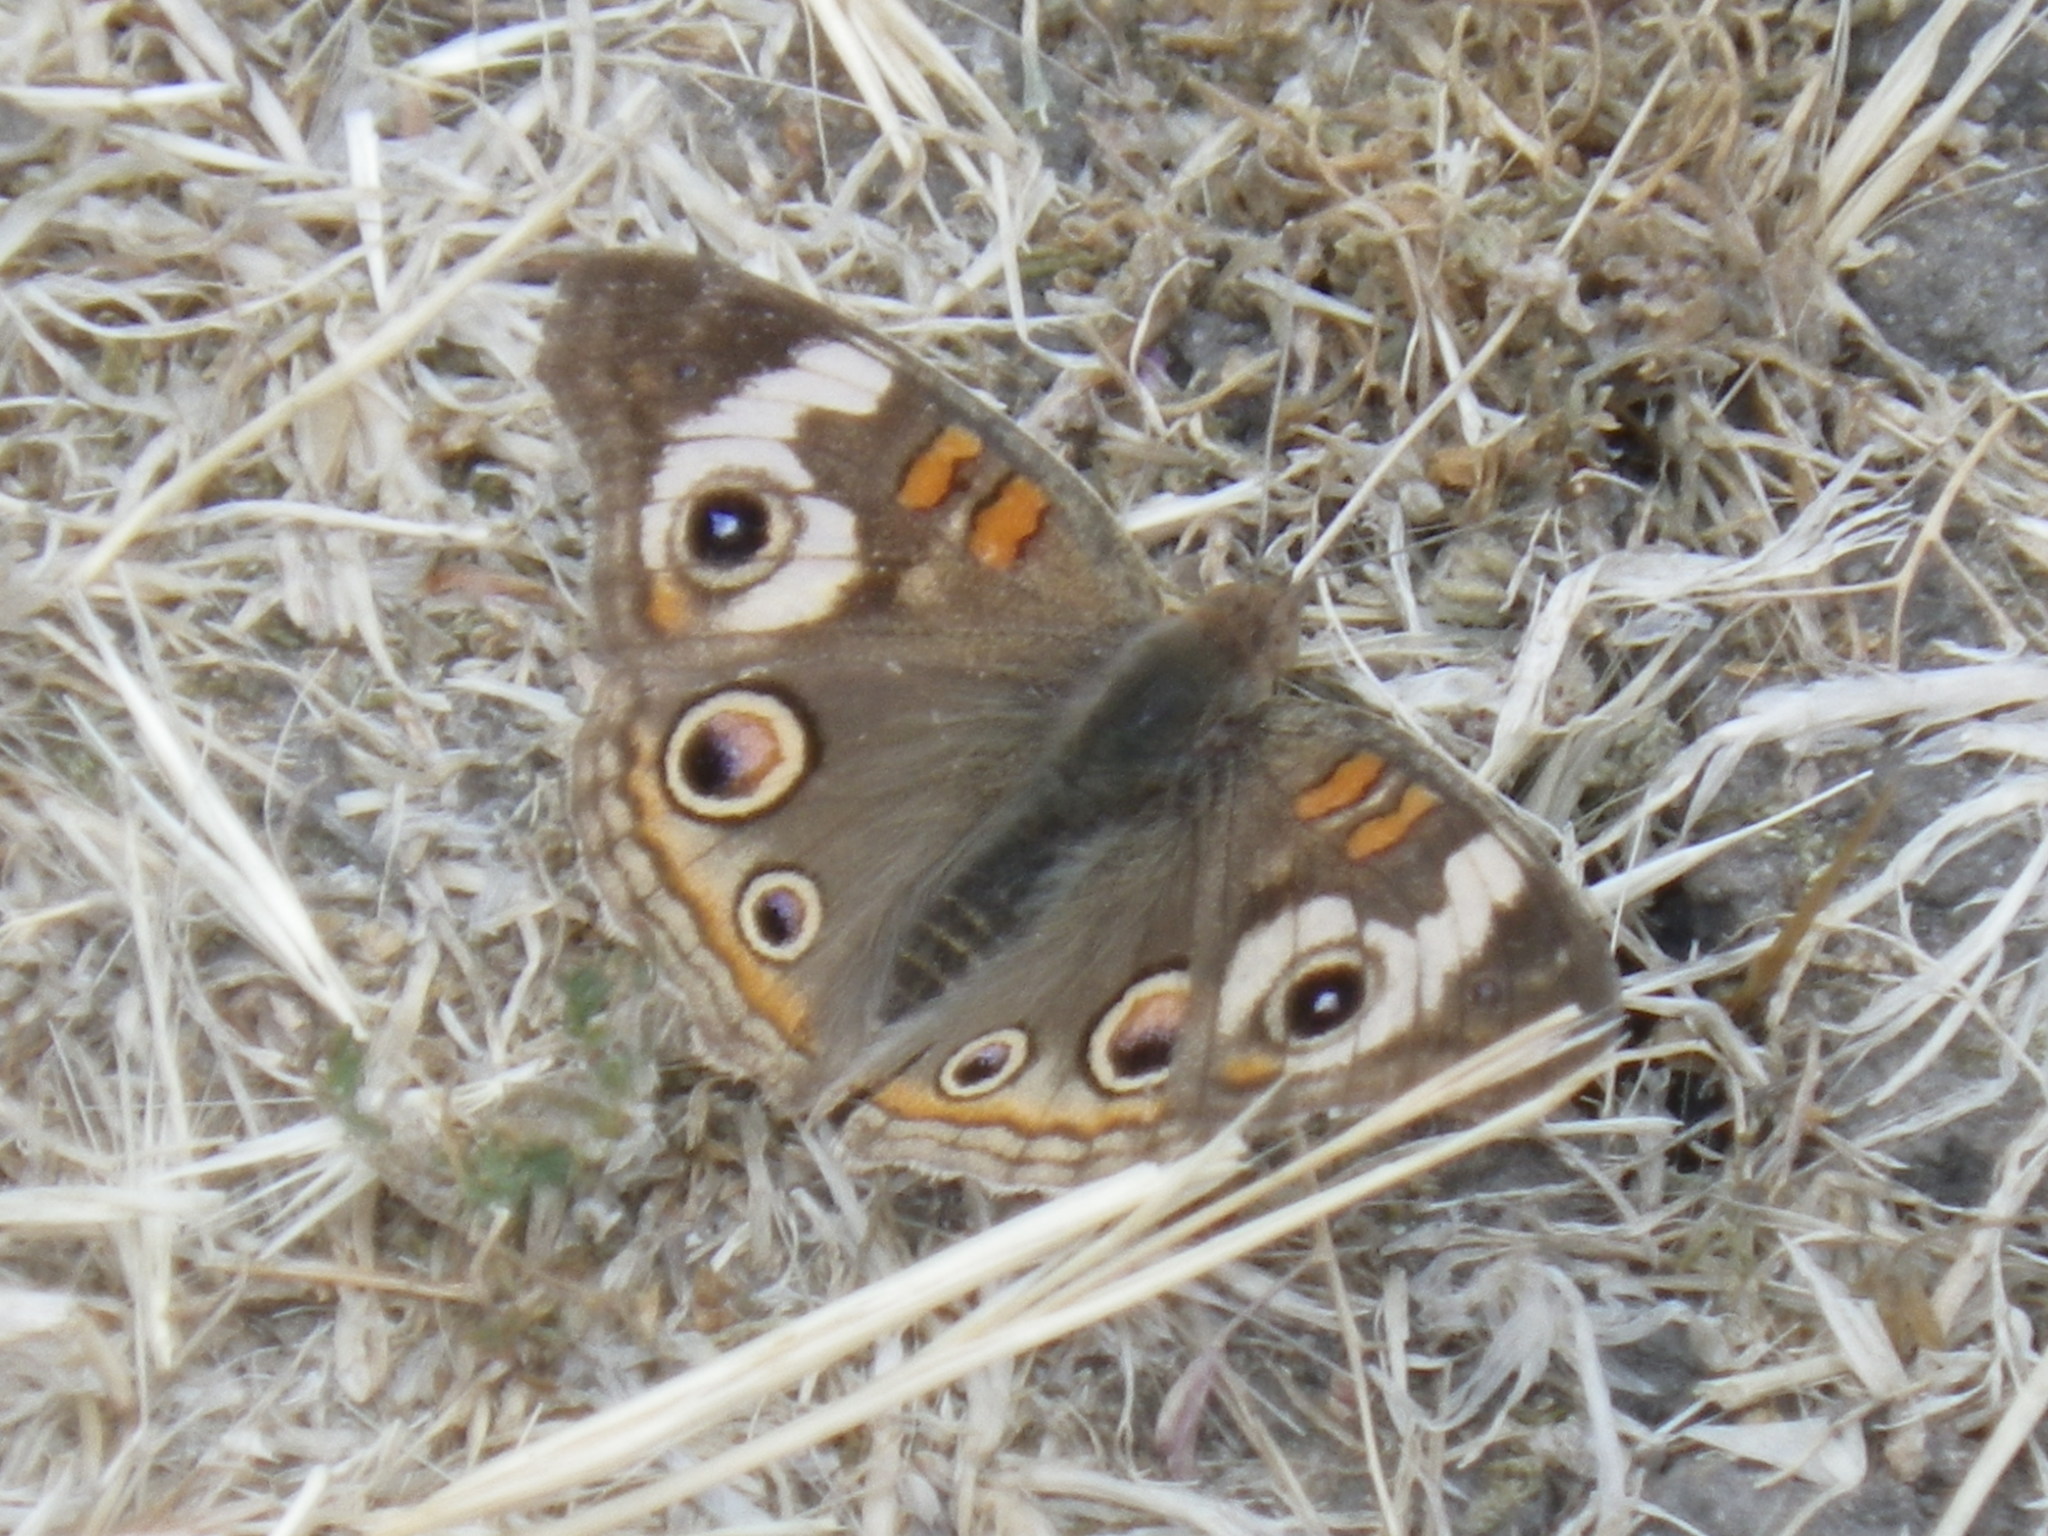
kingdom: Animalia
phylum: Arthropoda
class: Insecta
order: Lepidoptera
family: Nymphalidae
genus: Junonia
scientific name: Junonia grisea
